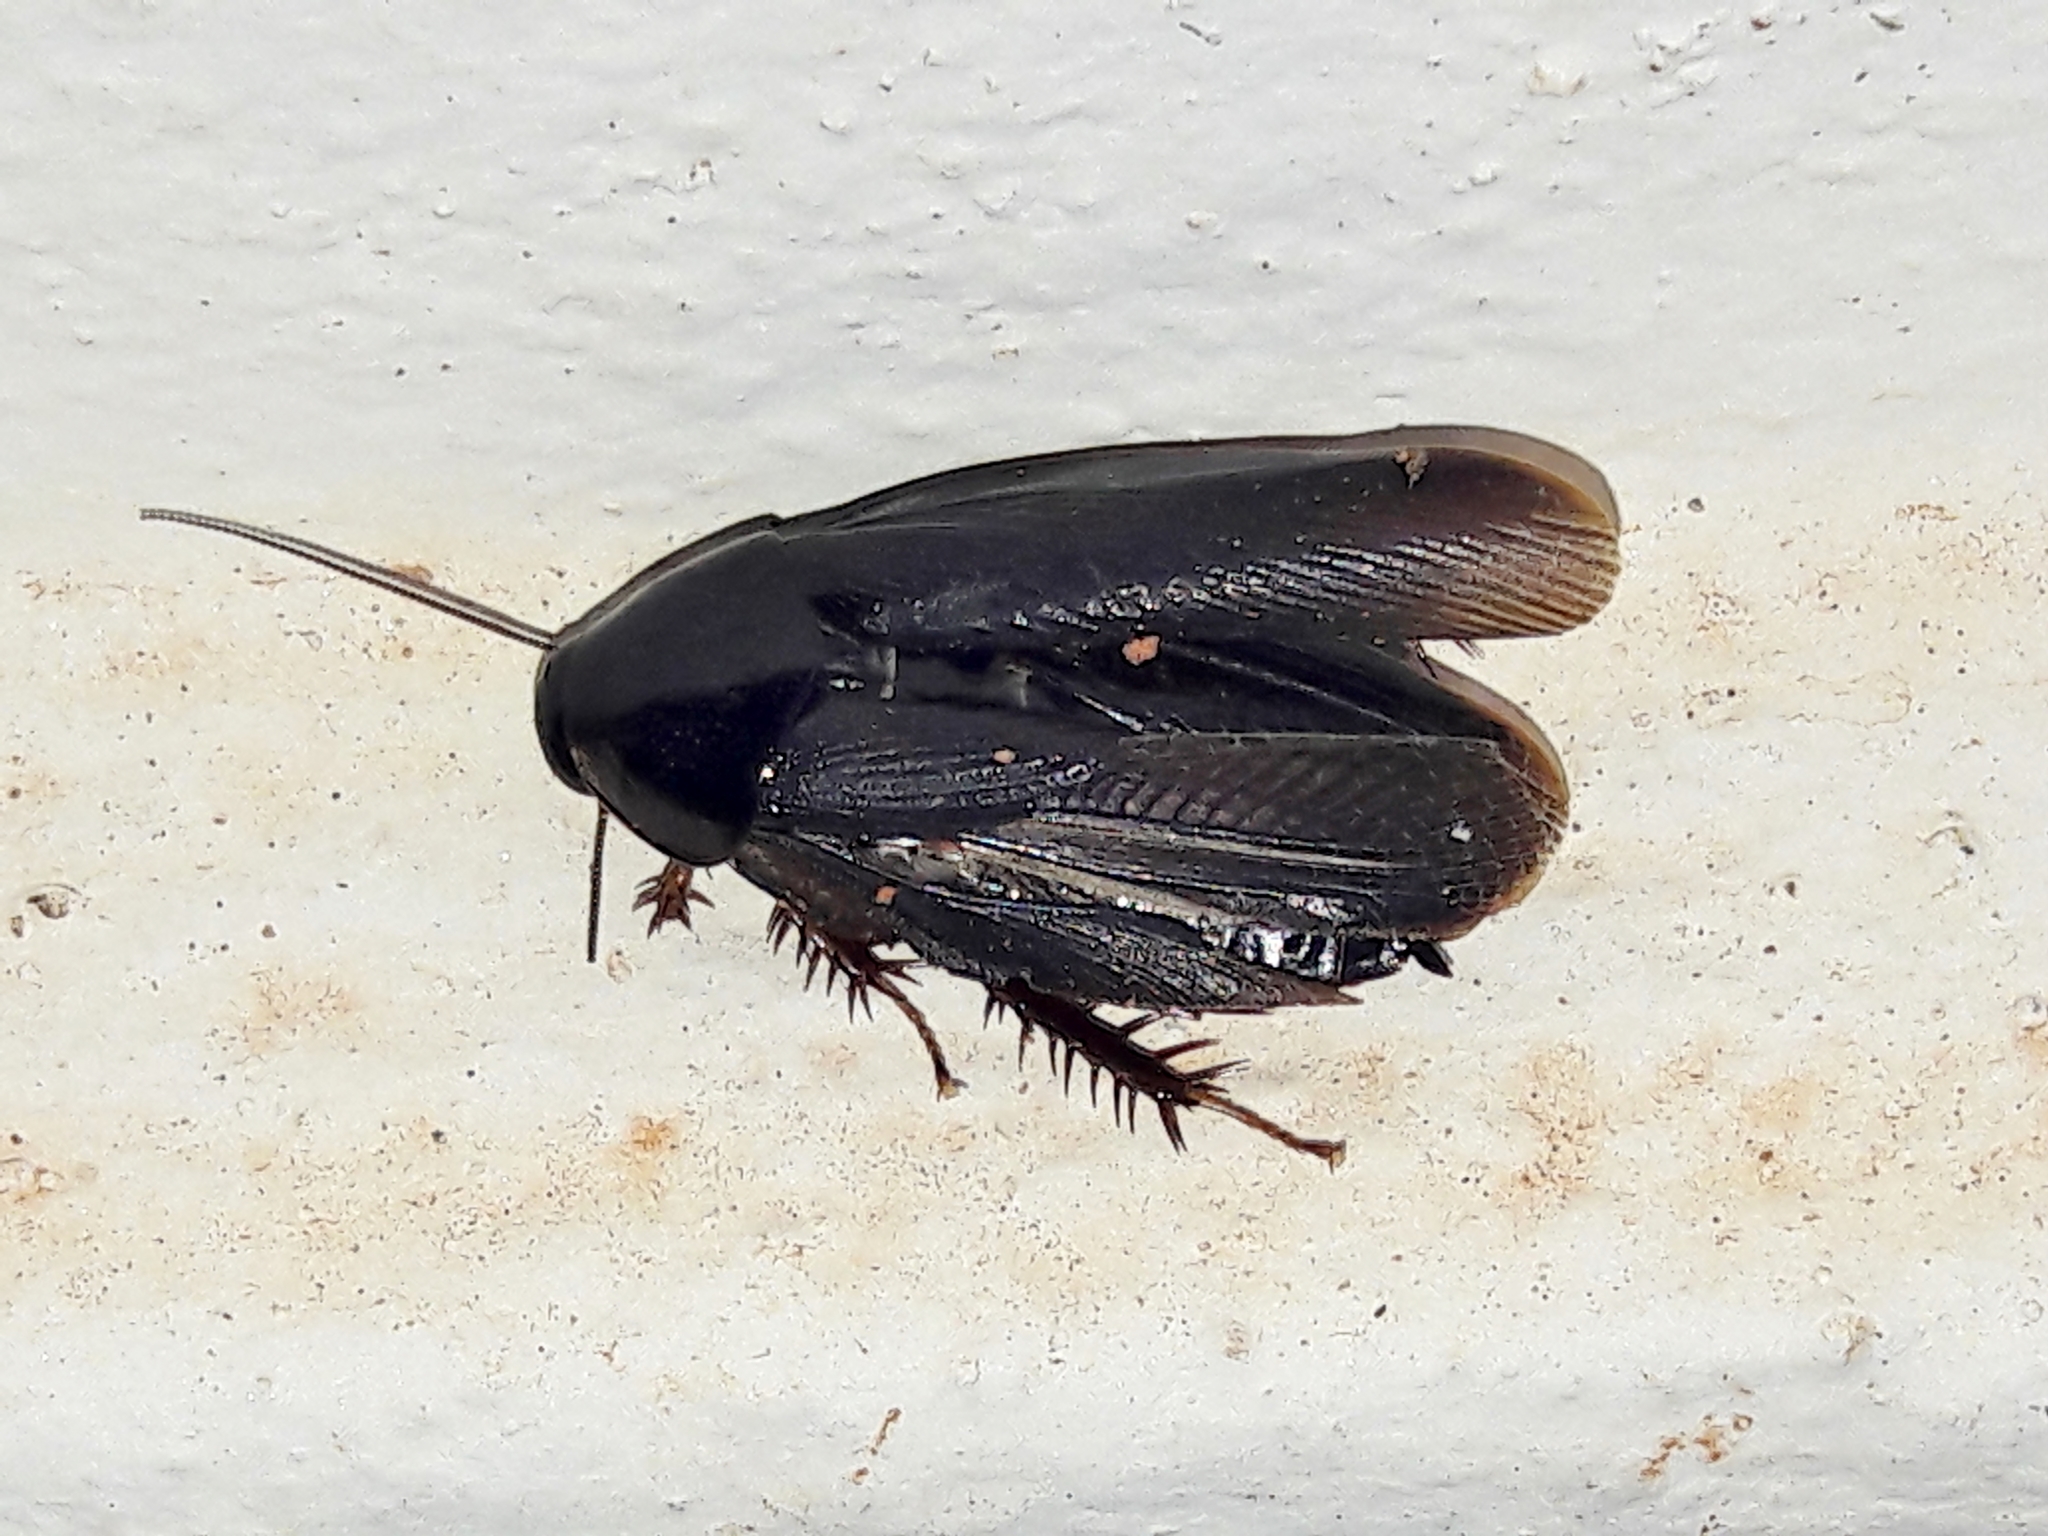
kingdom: Animalia
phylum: Arthropoda
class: Insecta
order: Blattodea
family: Blaberidae
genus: Pycnoscelus
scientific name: Pycnoscelus surinamensis
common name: Surinam cockroach
